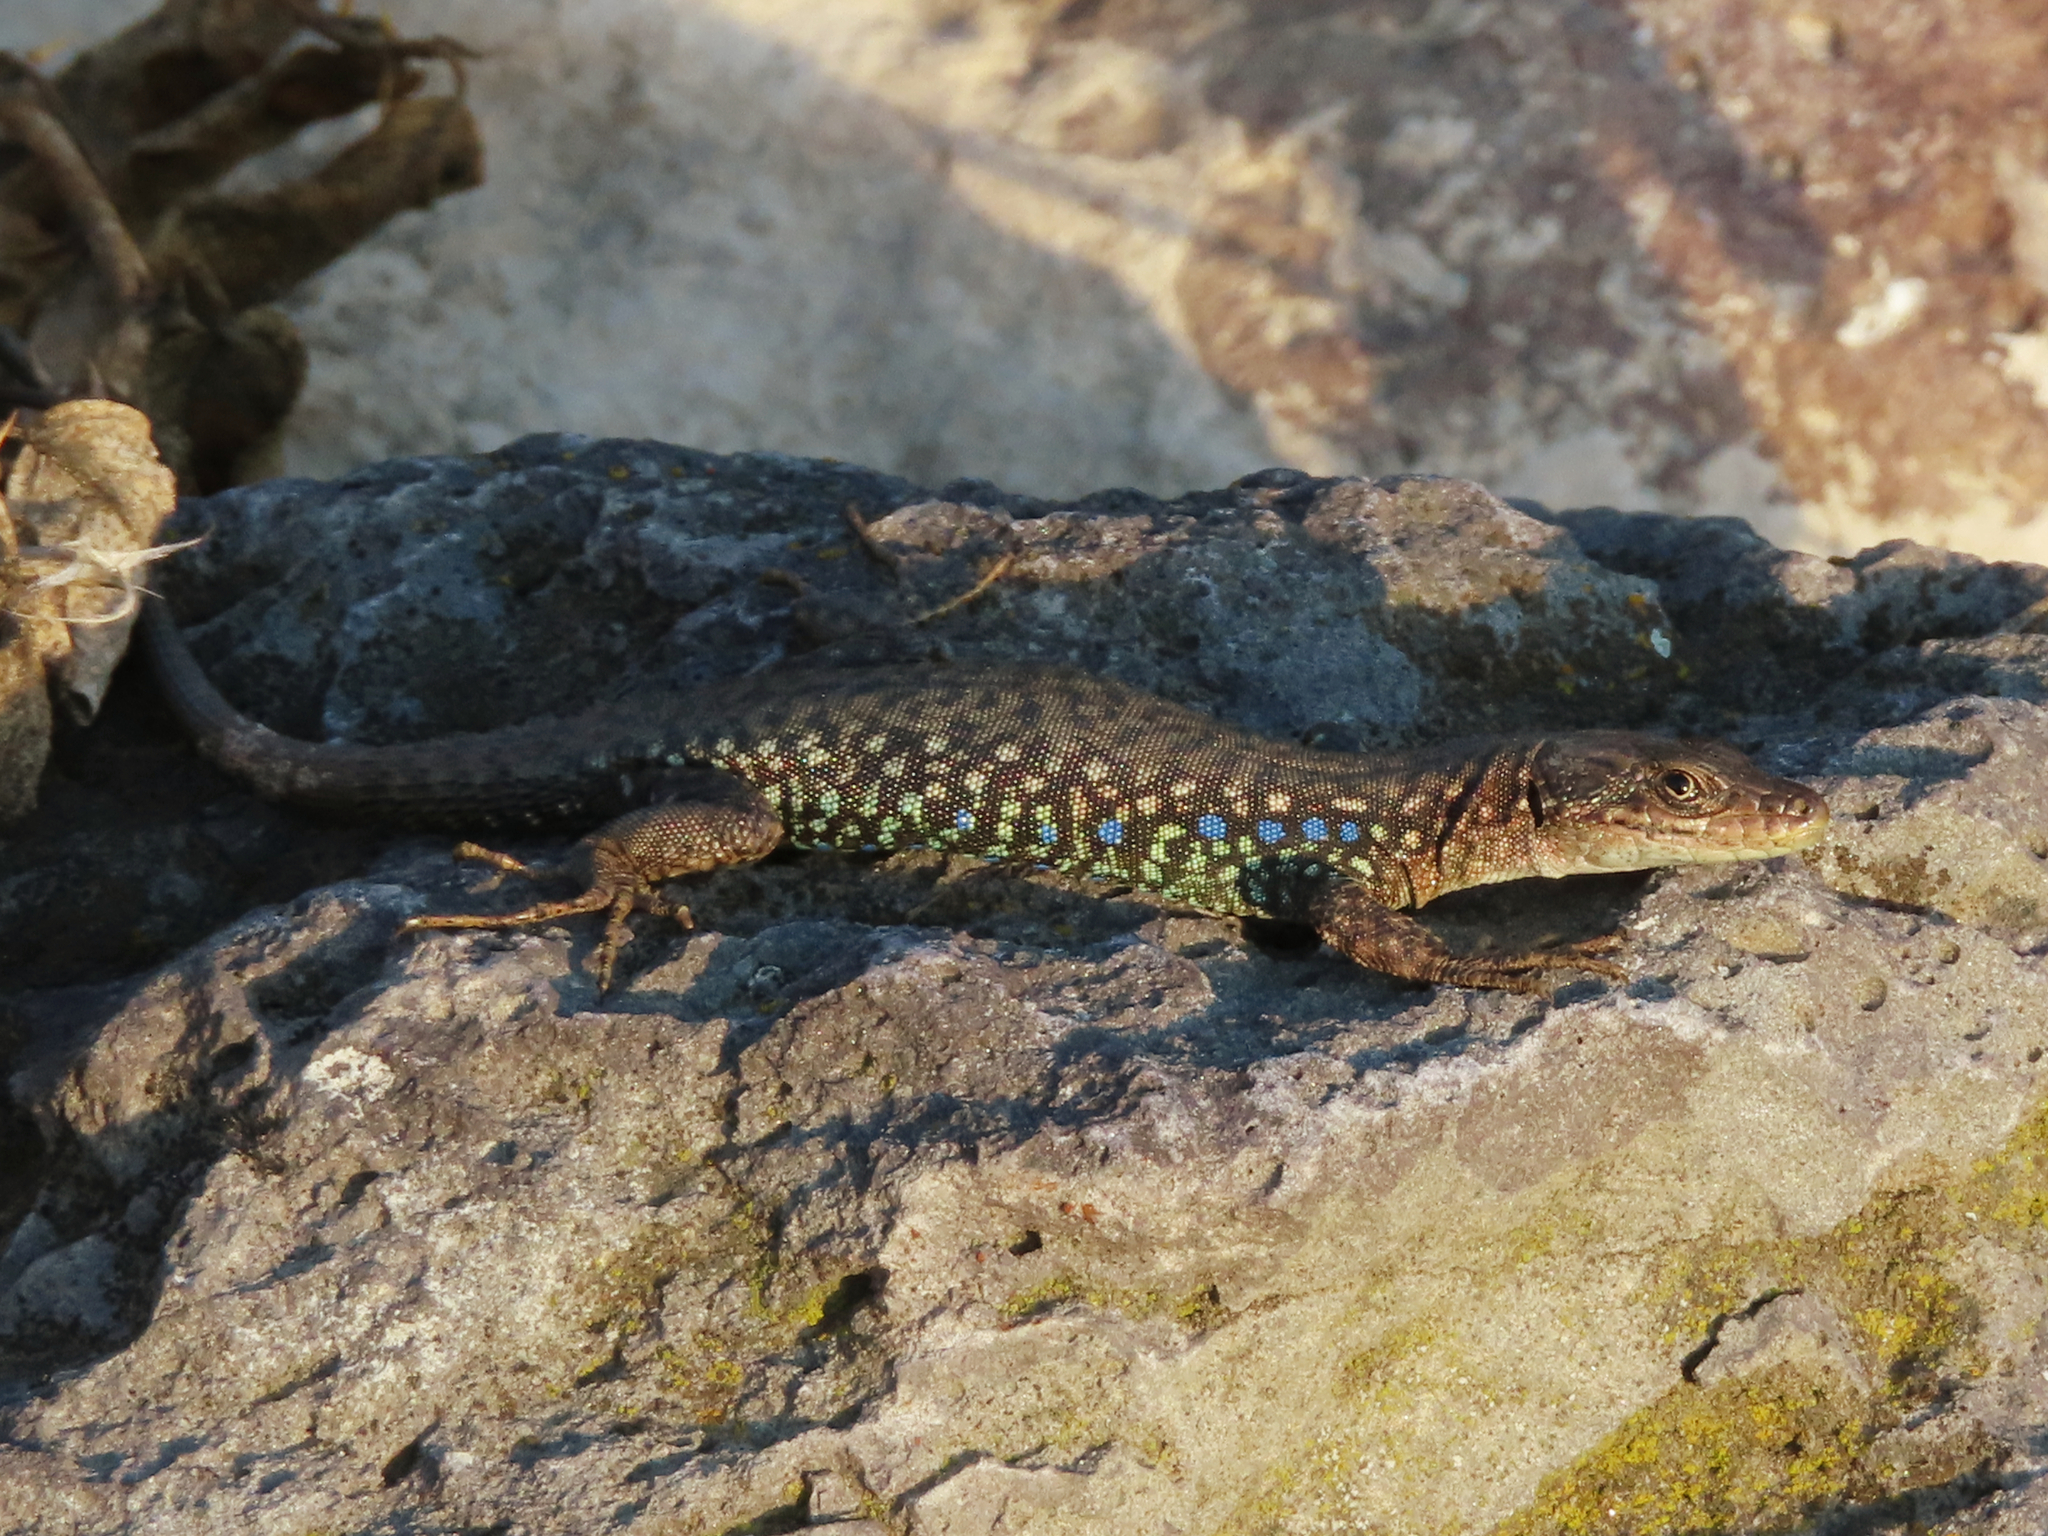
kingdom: Animalia
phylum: Chordata
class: Squamata
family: Lacertidae
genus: Darevskia
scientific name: Darevskia
